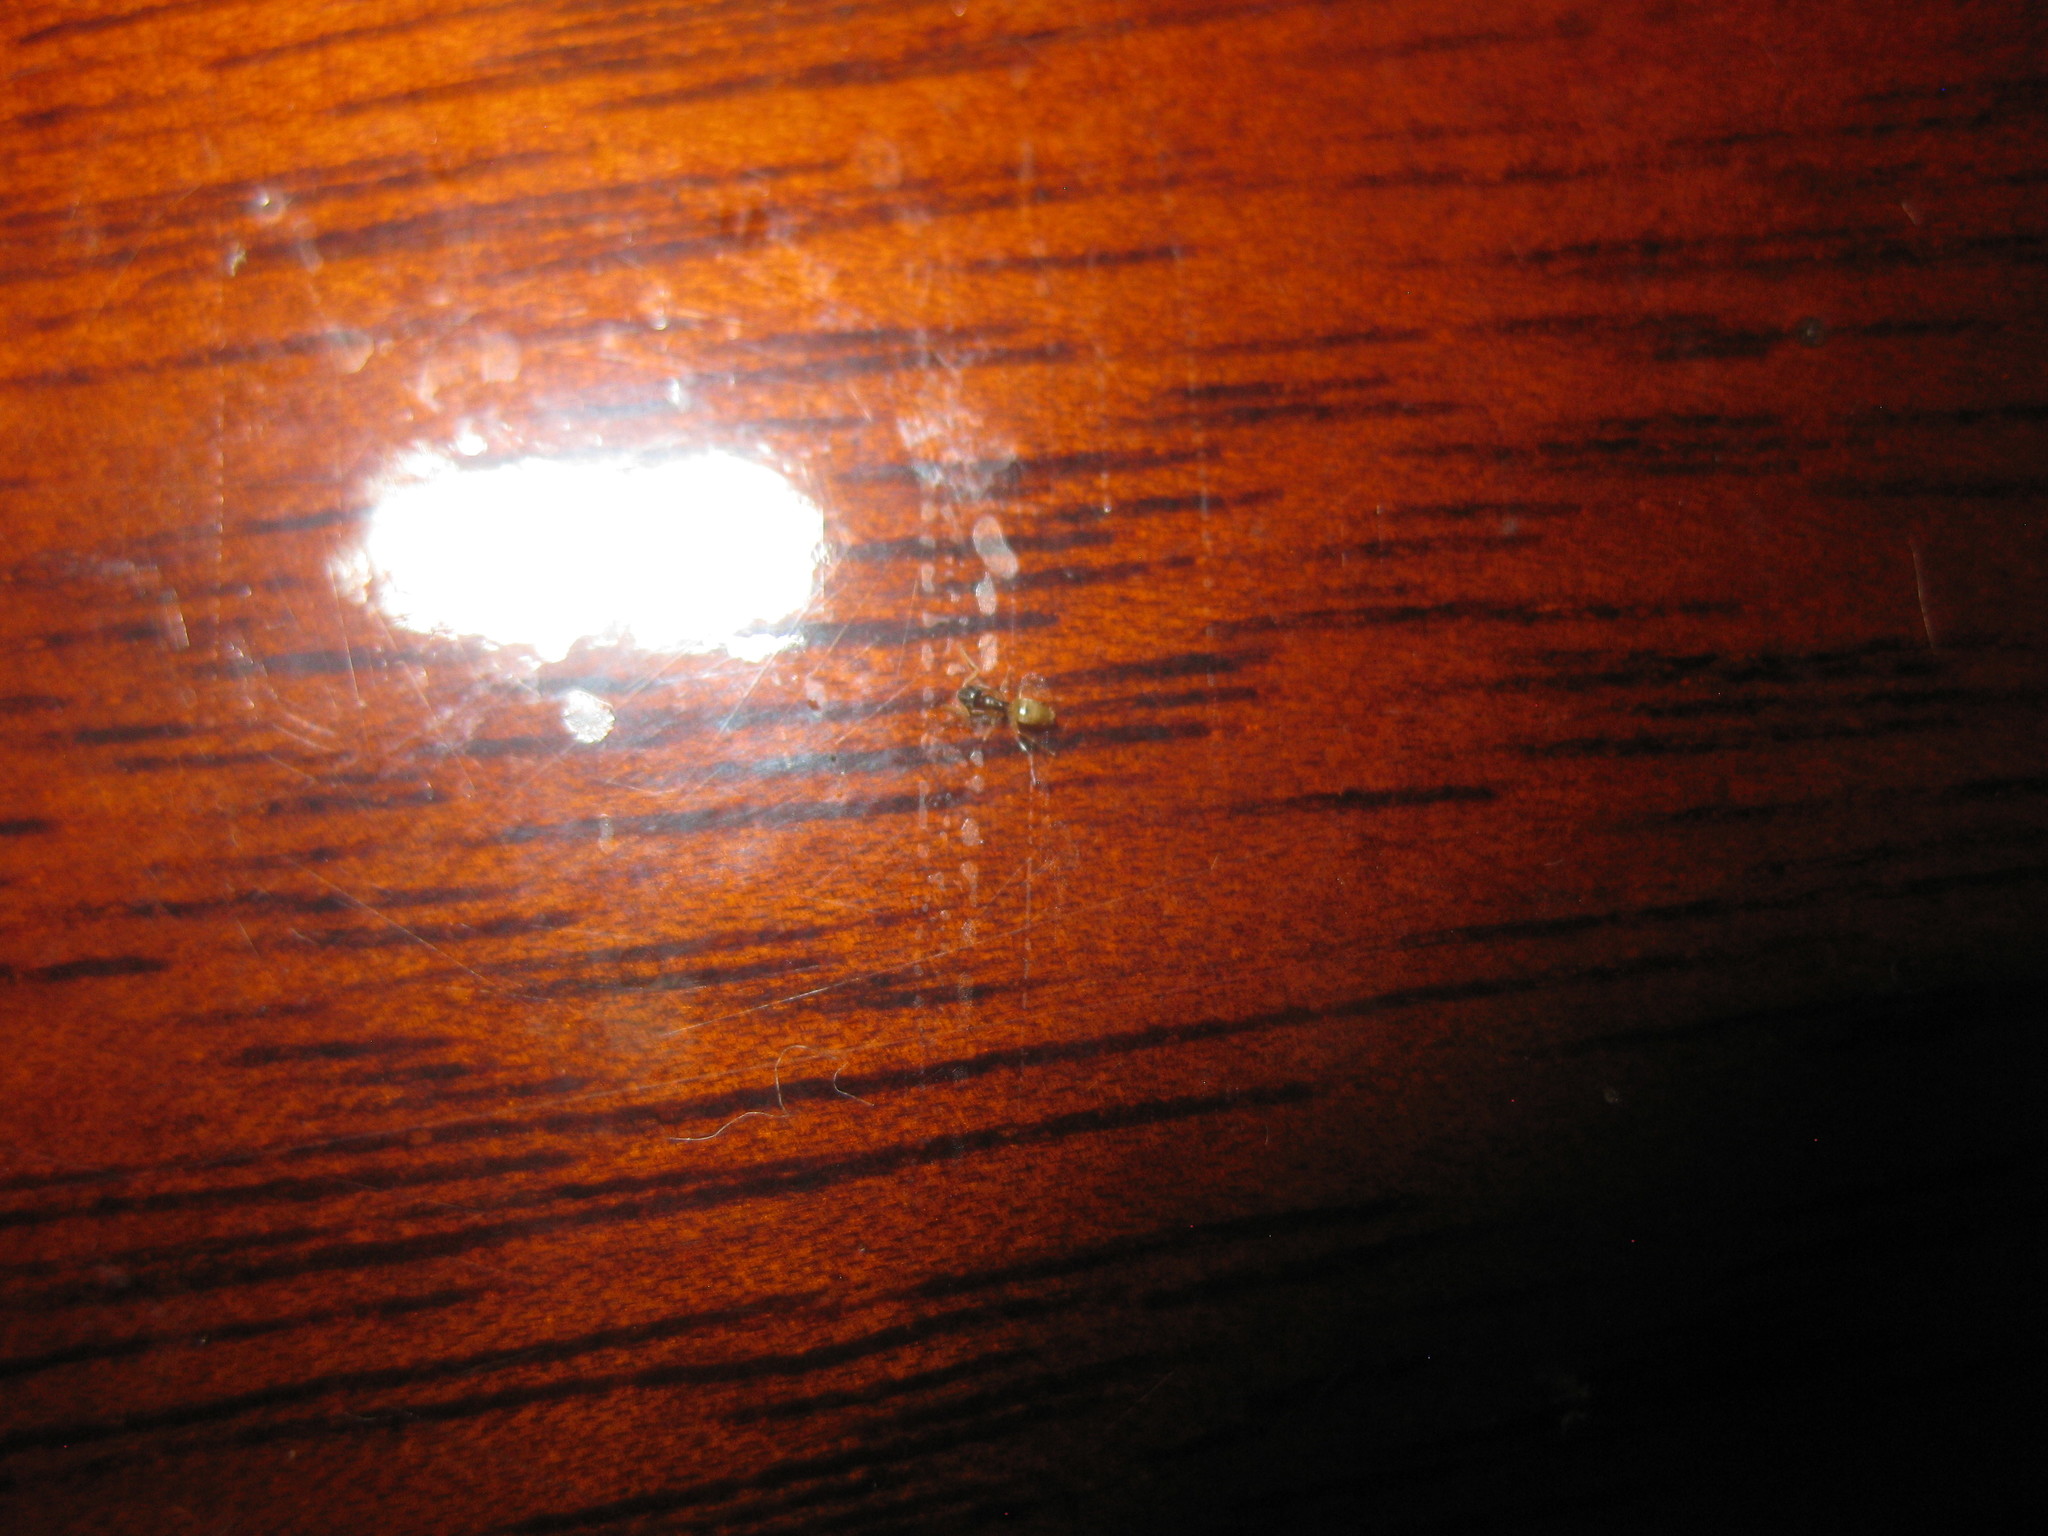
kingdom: Animalia
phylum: Arthropoda
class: Insecta
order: Hymenoptera
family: Formicidae
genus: Tapinoma
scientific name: Tapinoma melanocephalum
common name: Ghost ant
